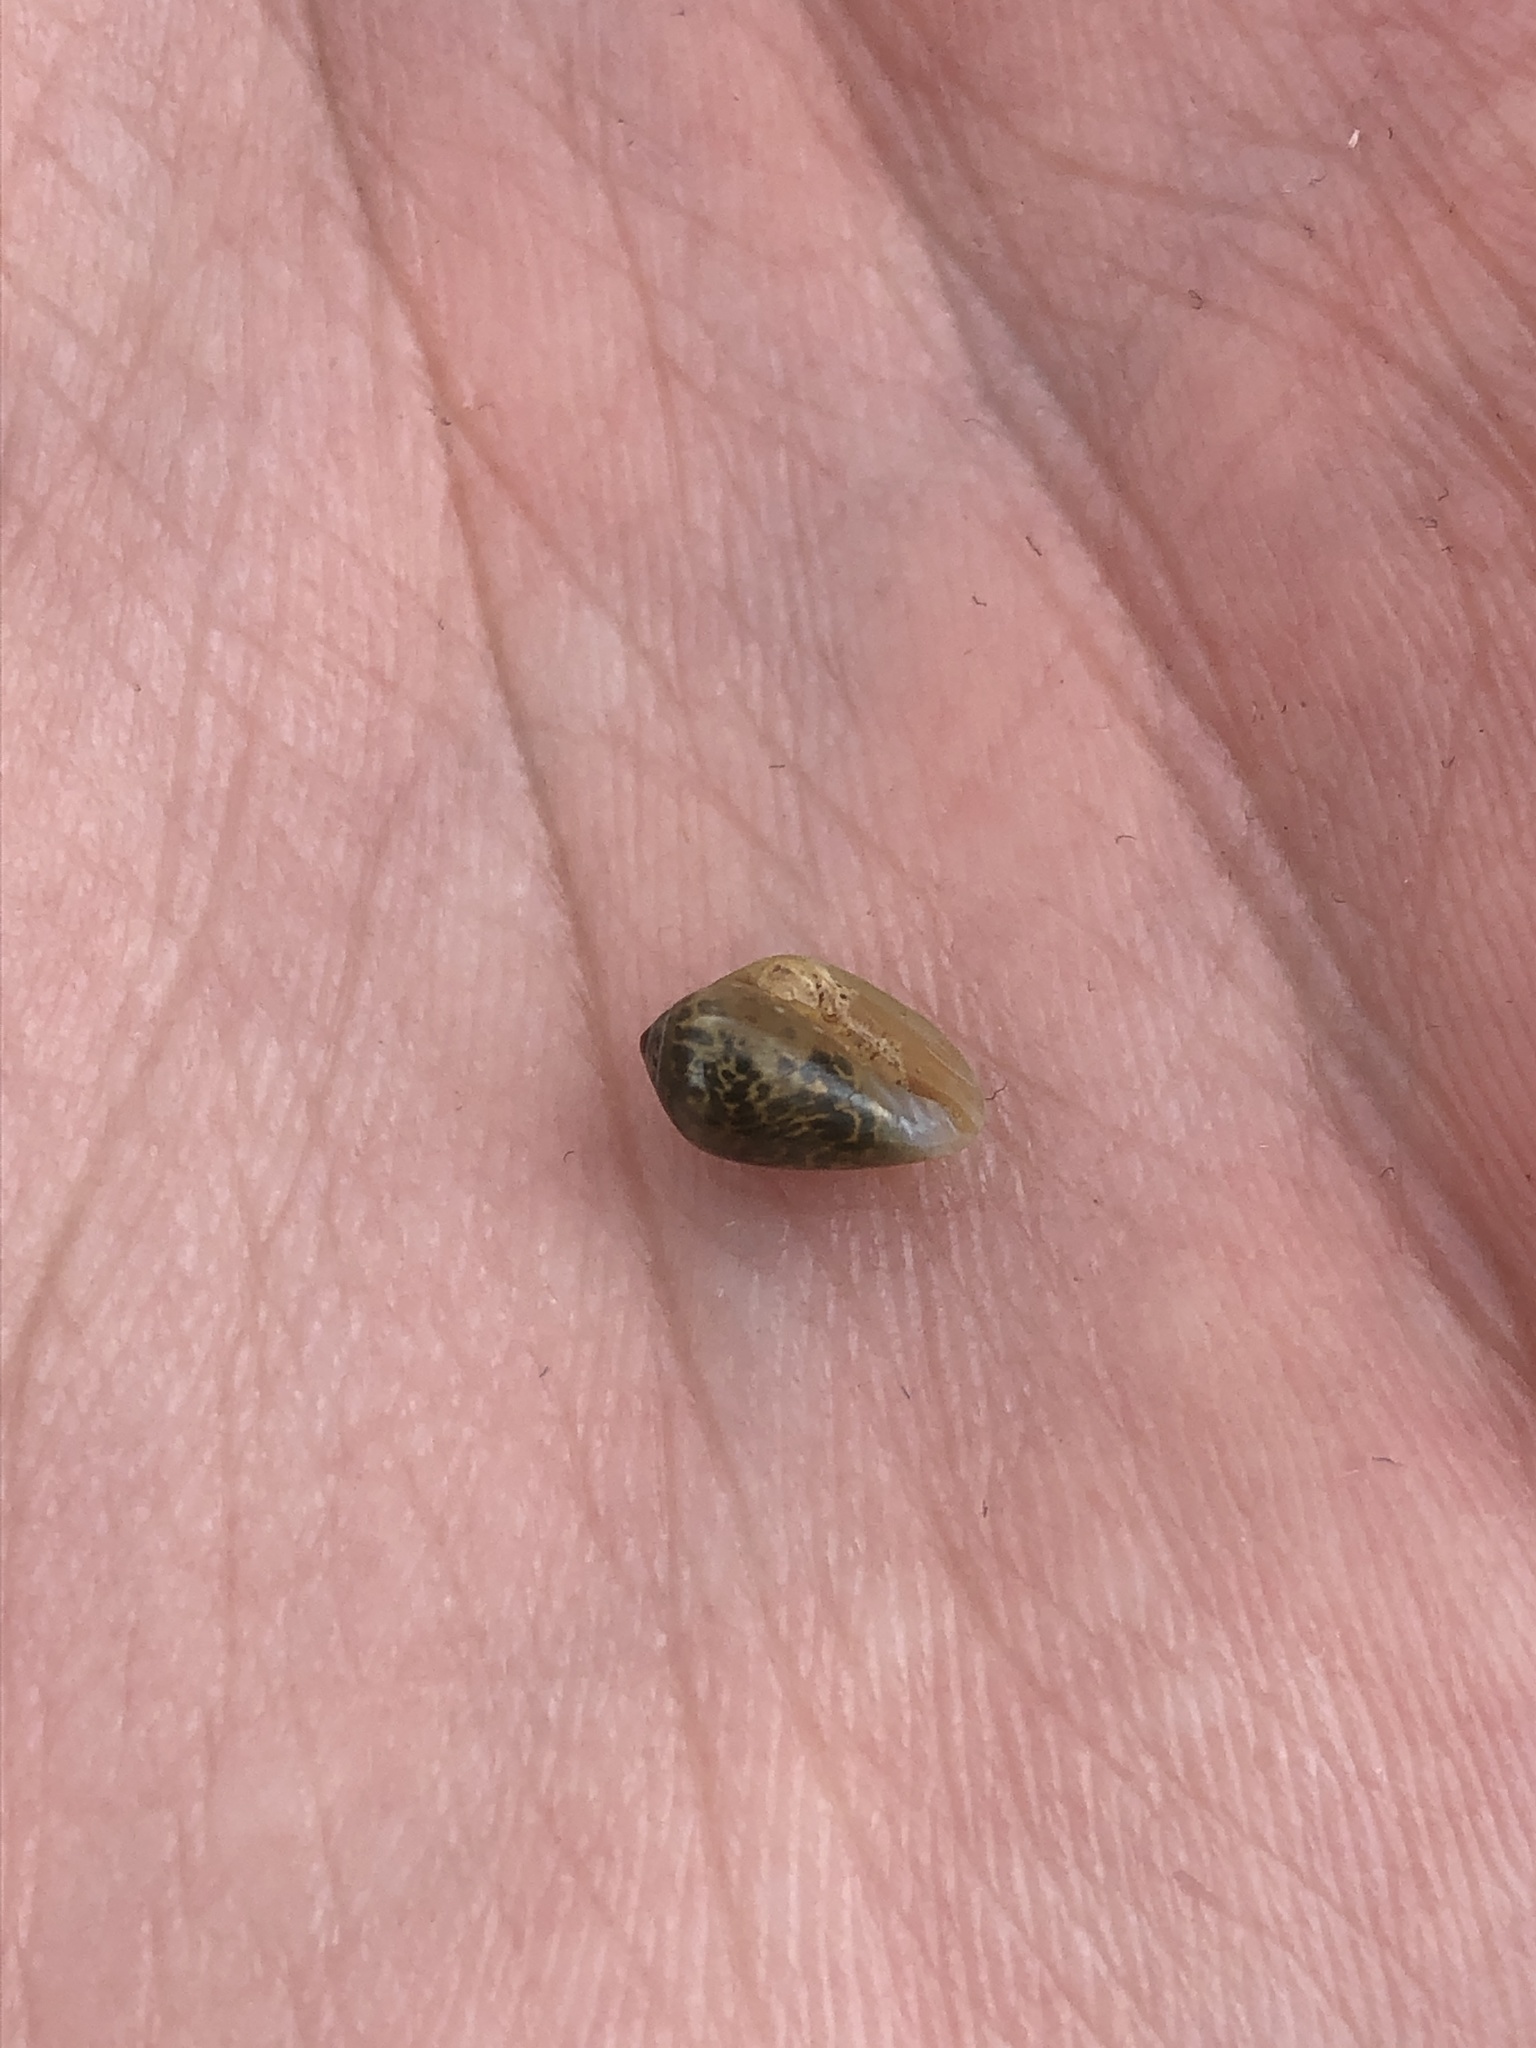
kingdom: Animalia
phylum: Mollusca
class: Gastropoda
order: Neogastropoda
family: Marginellidae
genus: Prunum
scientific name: Prunum apicinum
